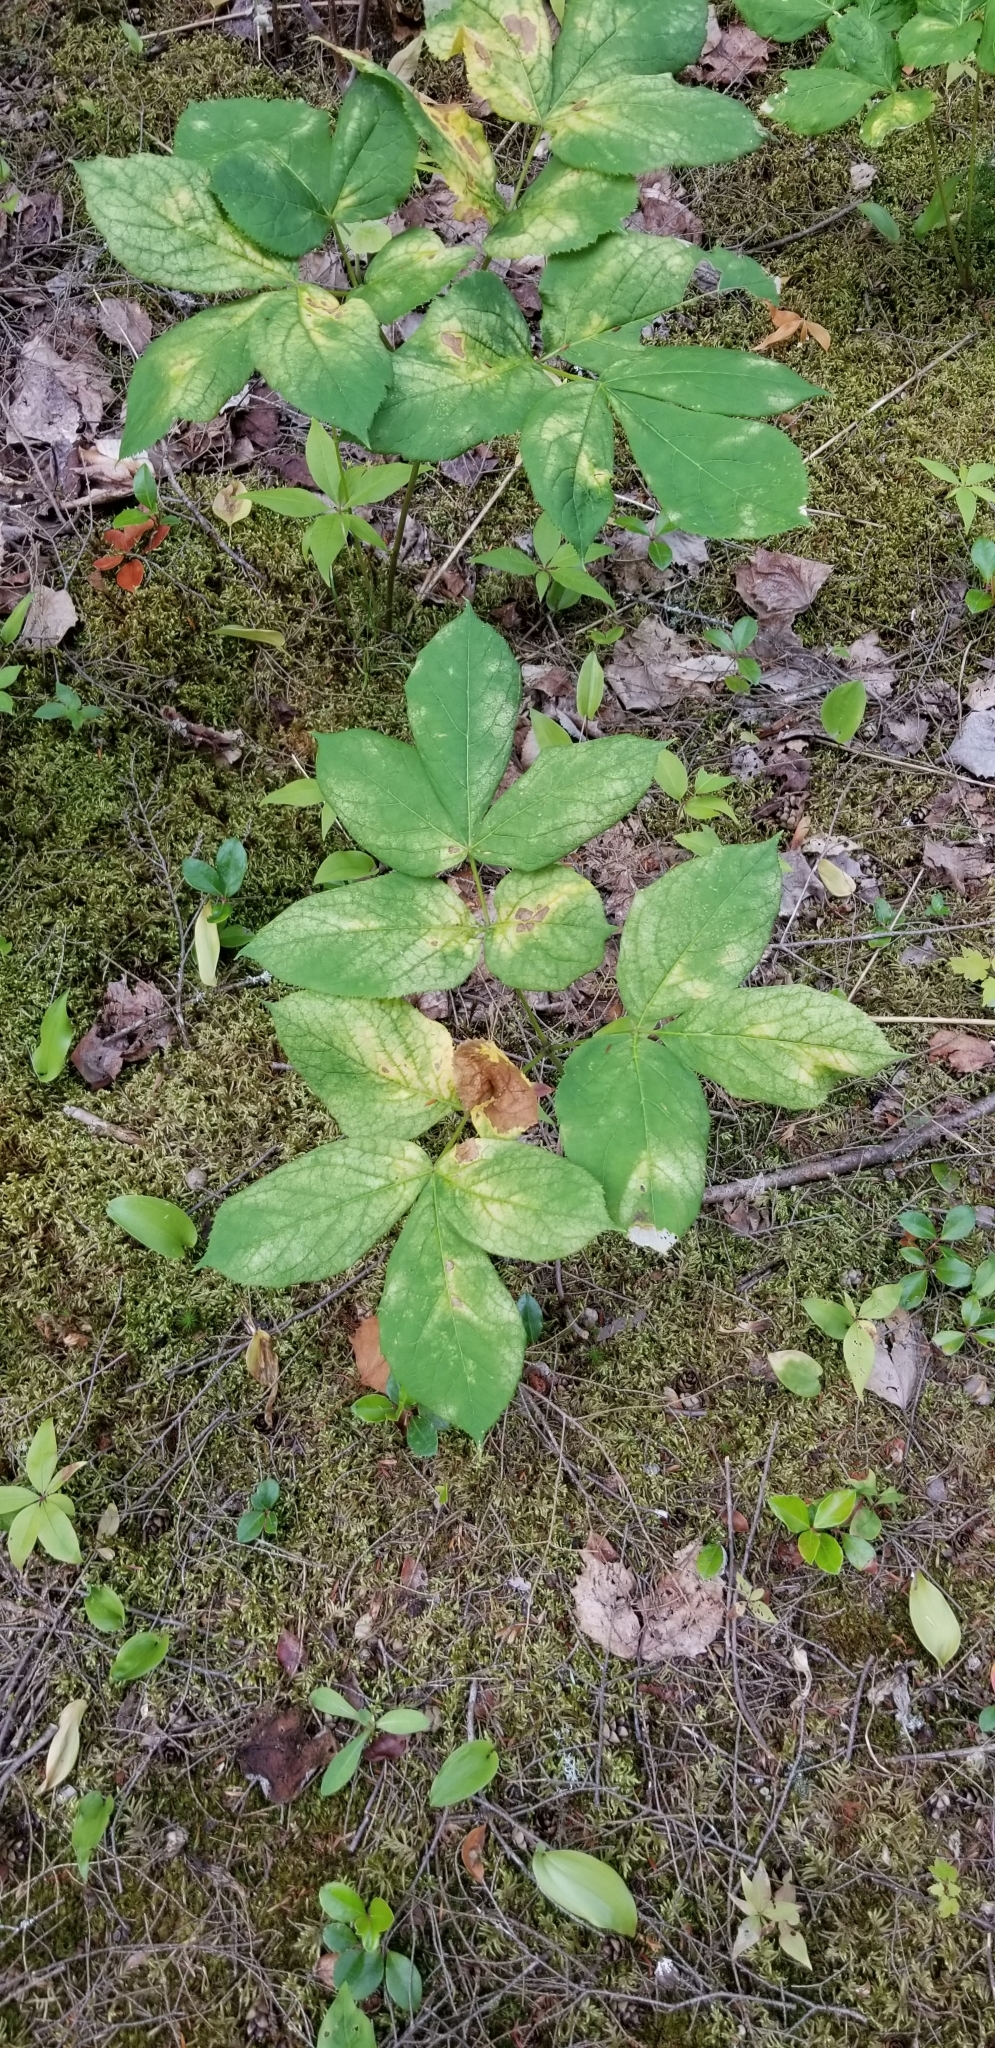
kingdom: Plantae
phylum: Tracheophyta
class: Magnoliopsida
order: Apiales
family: Araliaceae
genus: Aralia
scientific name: Aralia nudicaulis
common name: Wild sarsaparilla
